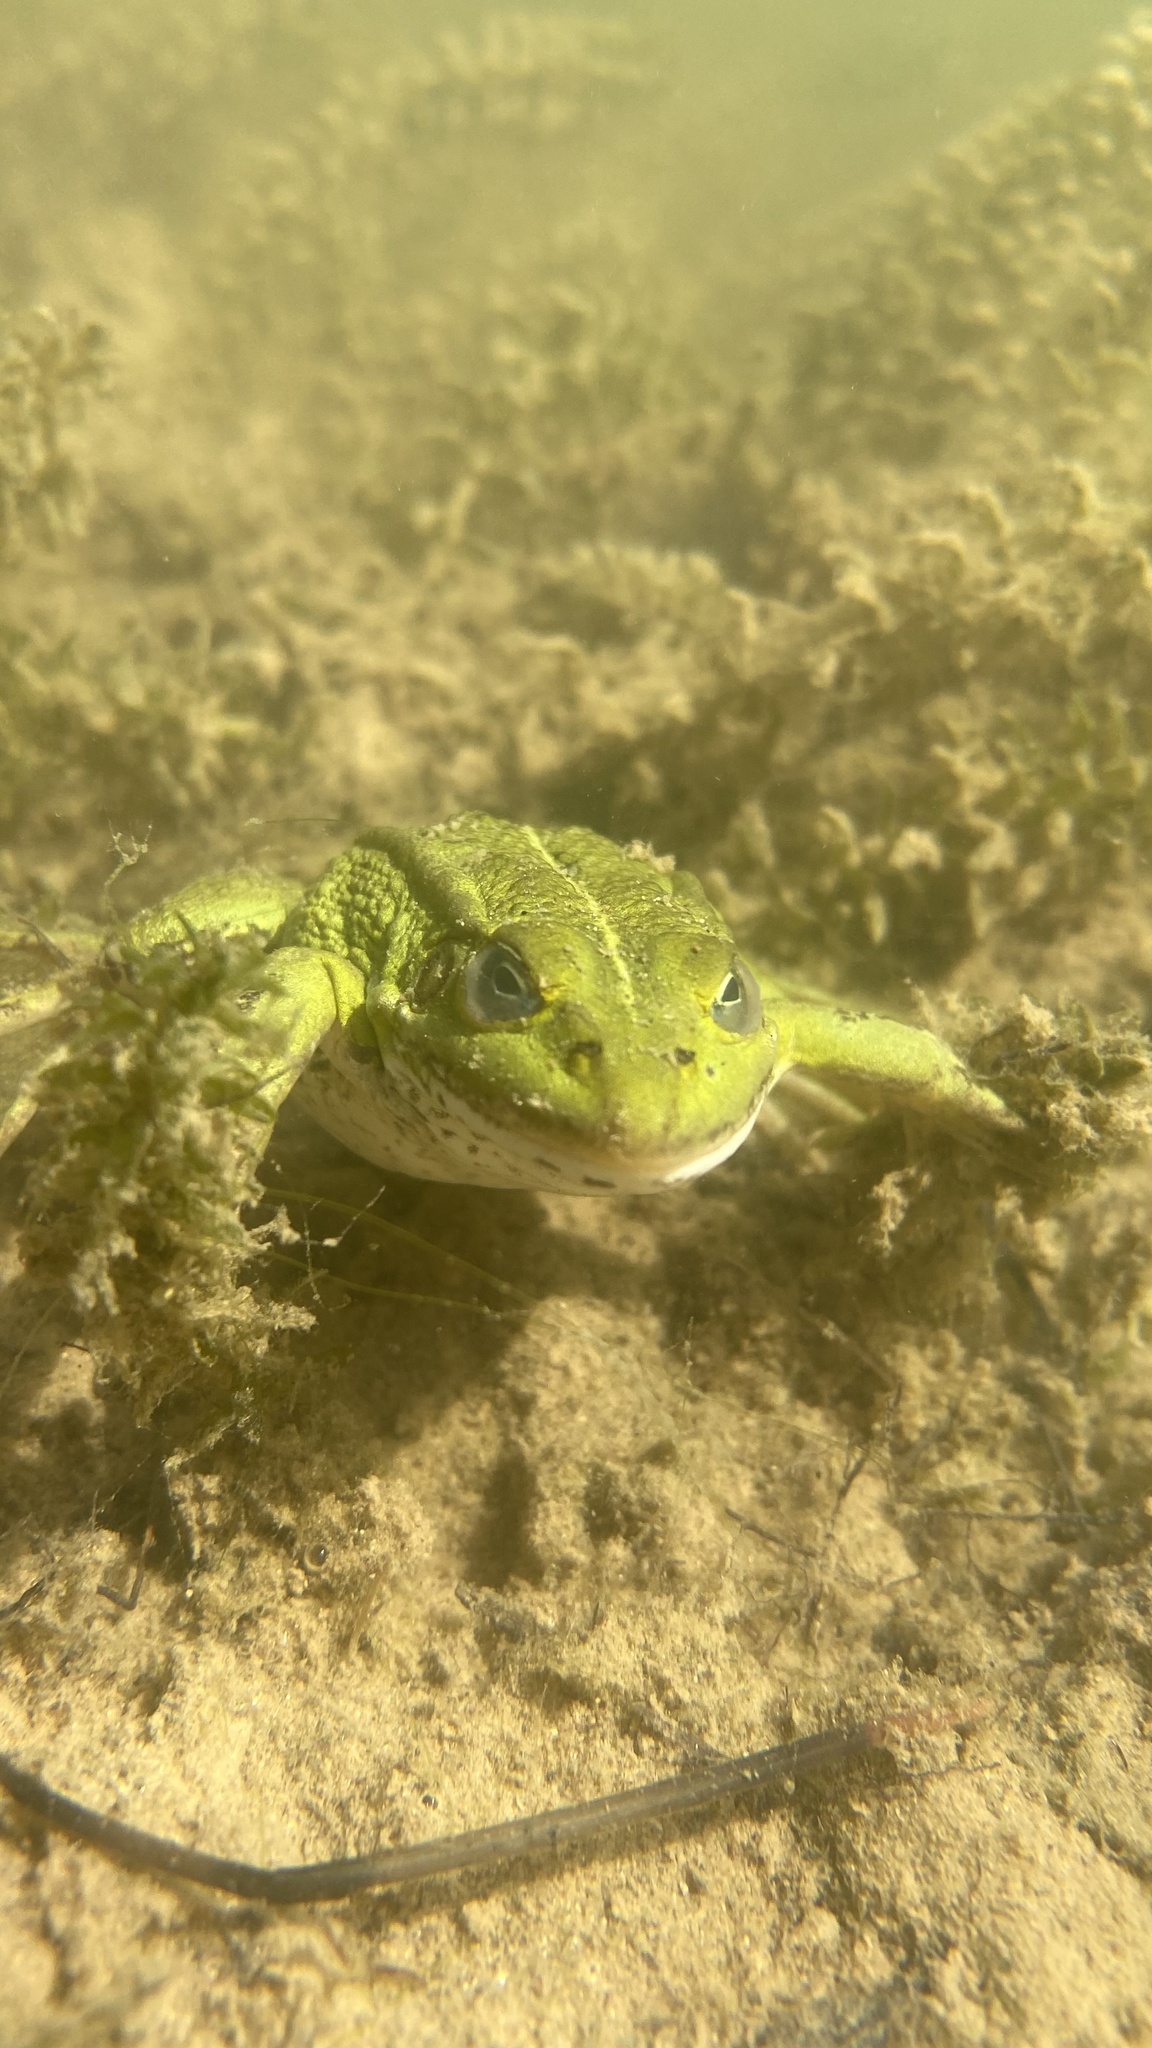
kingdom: Animalia
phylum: Chordata
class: Amphibia
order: Anura
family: Ranidae
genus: Pelophylax
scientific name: Pelophylax lessonae
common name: Pool frog
